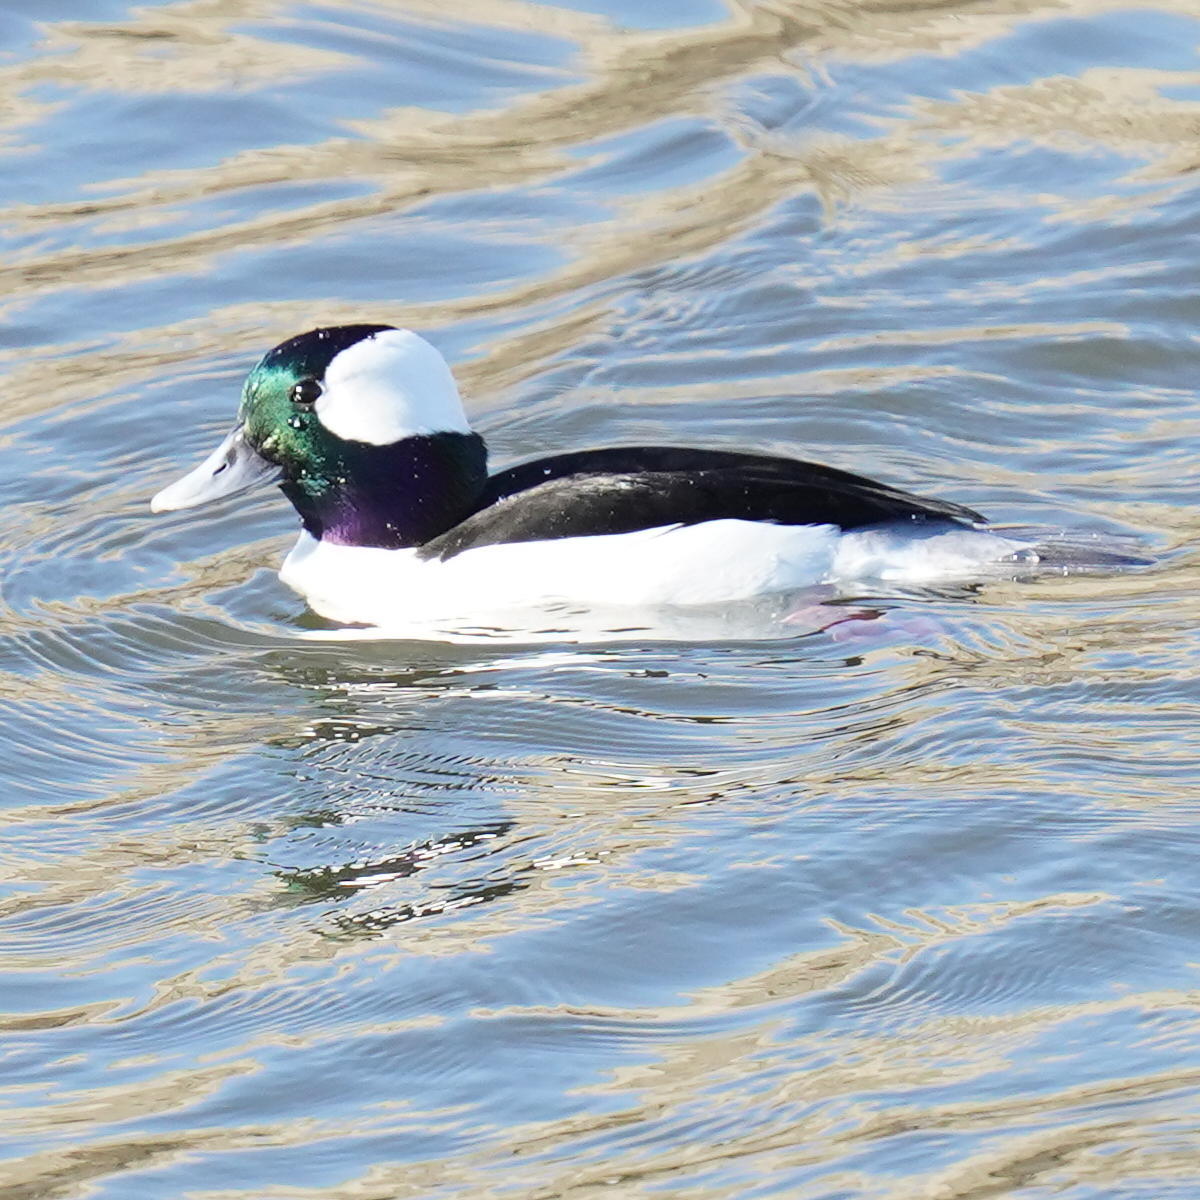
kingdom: Animalia
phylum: Chordata
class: Aves
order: Anseriformes
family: Anatidae
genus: Bucephala
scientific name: Bucephala albeola
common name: Bufflehead
